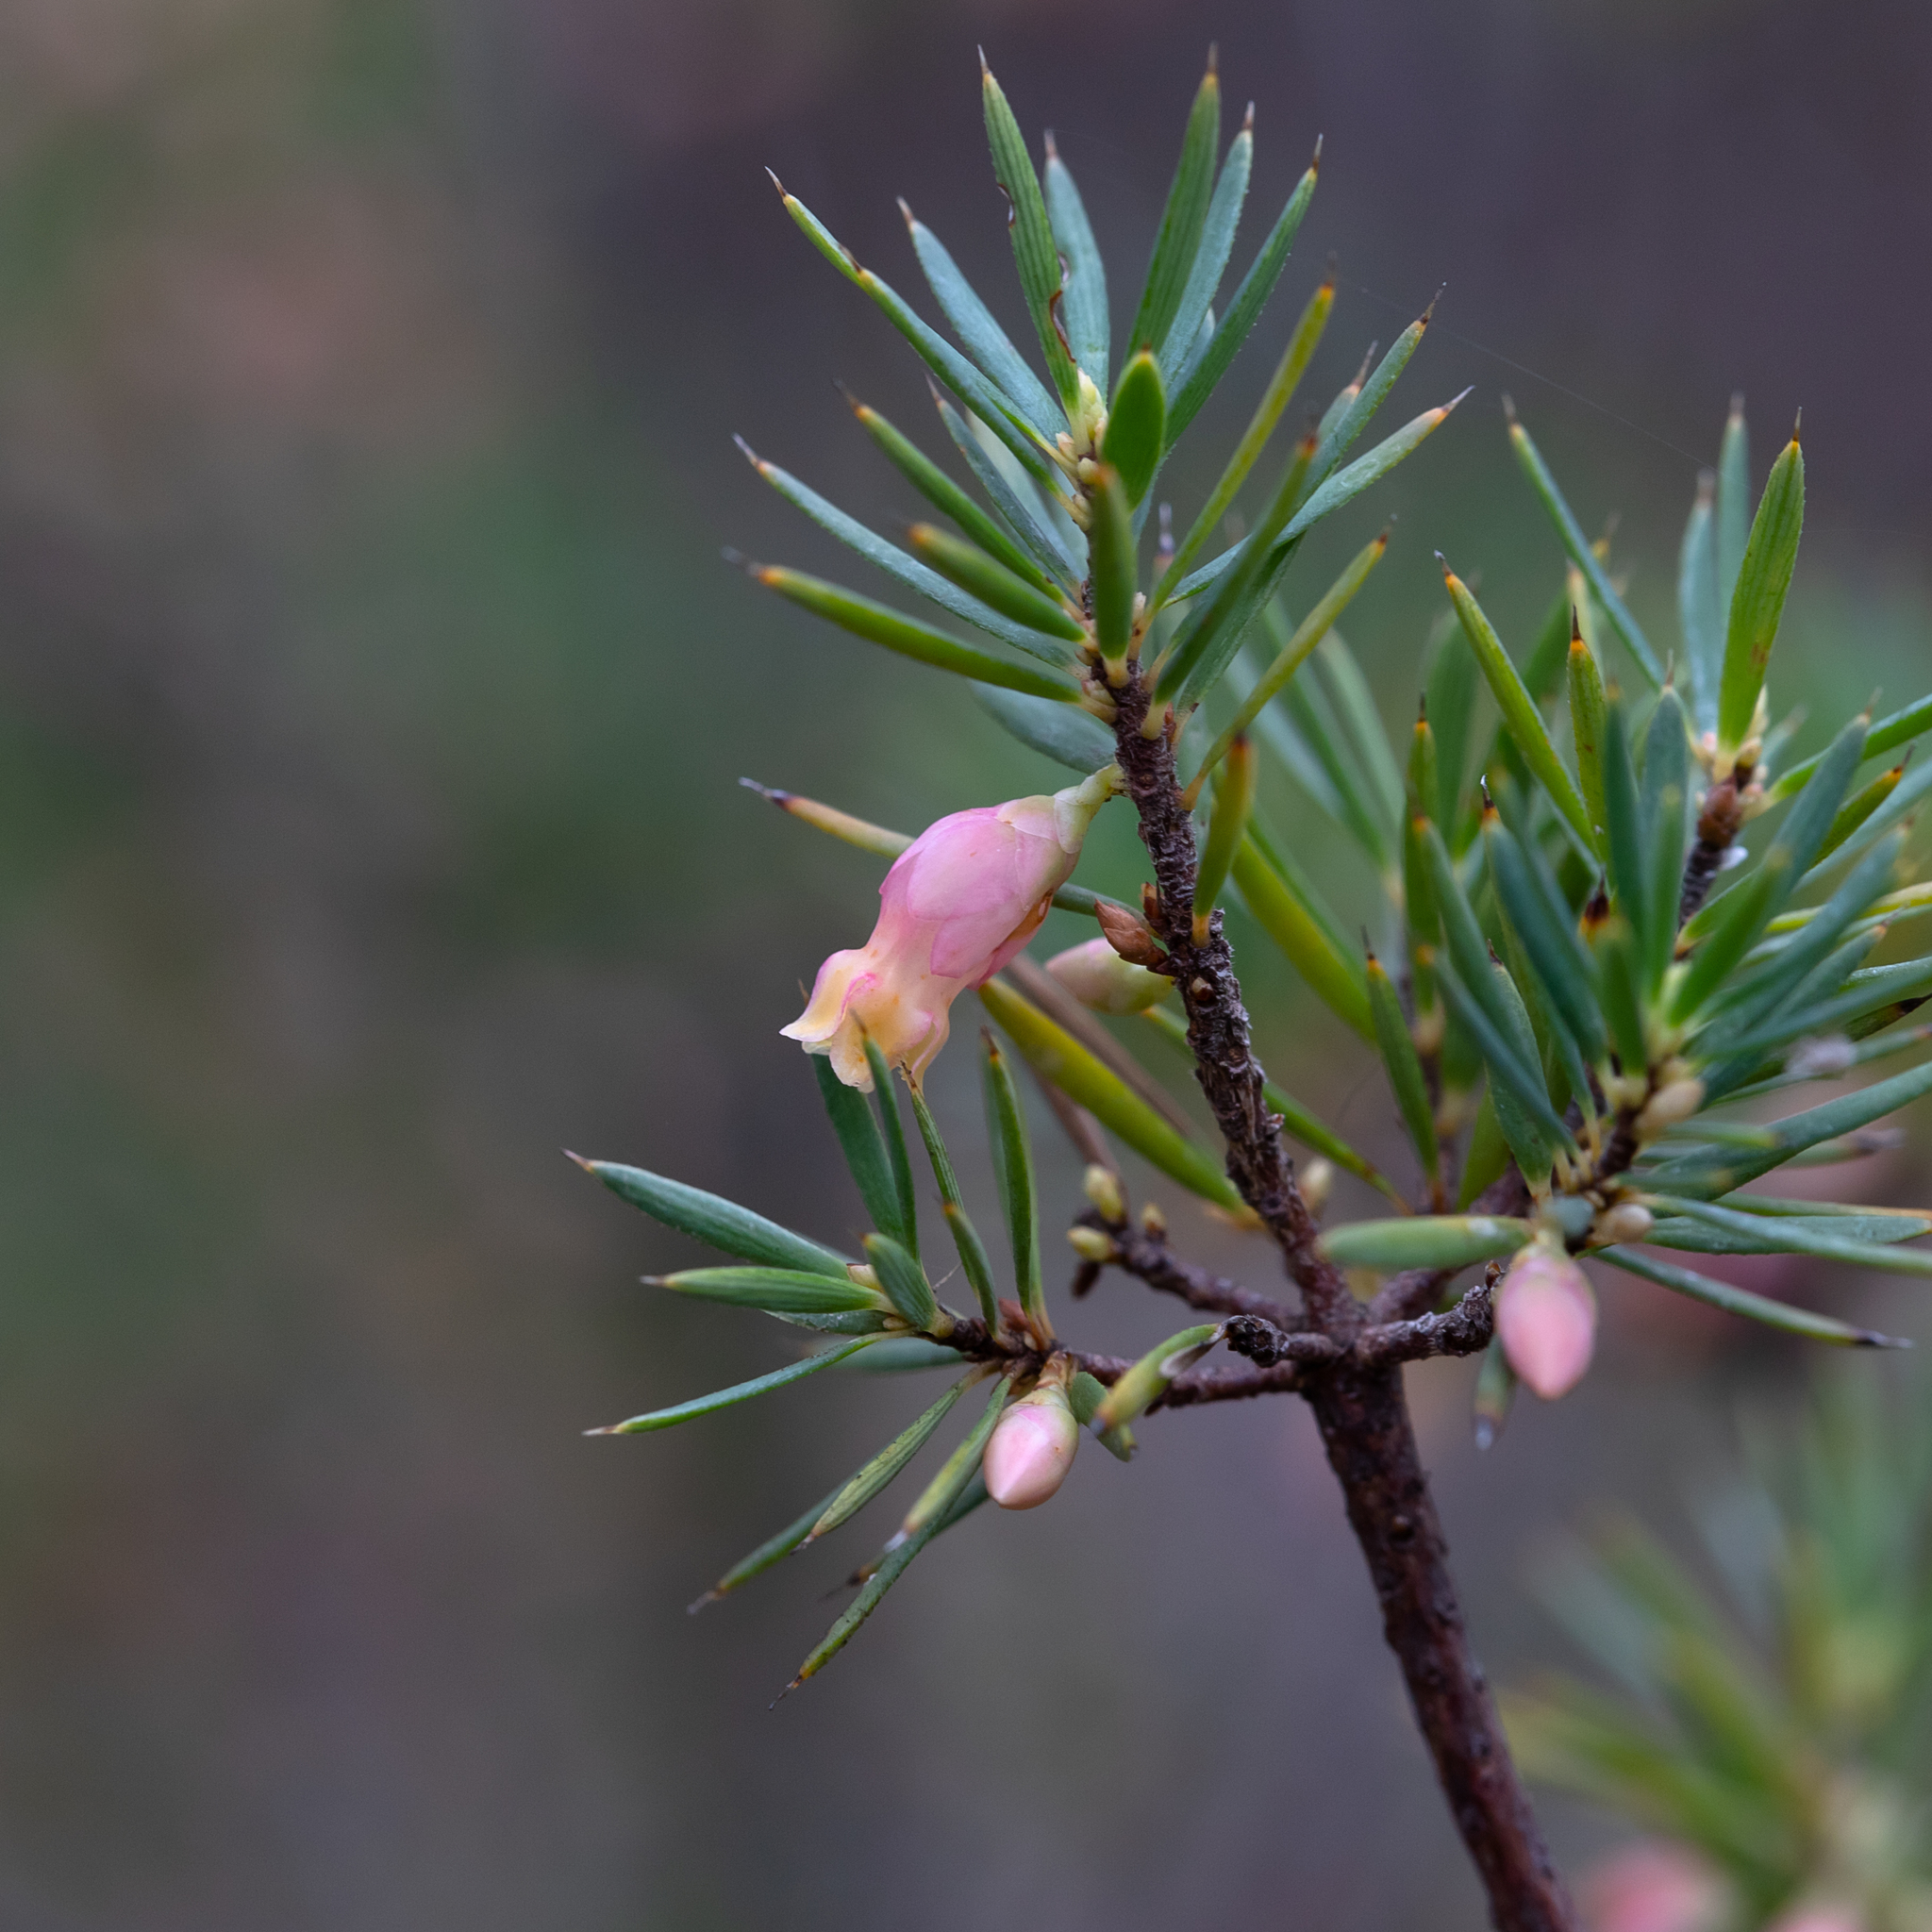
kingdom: Plantae
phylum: Tracheophyta
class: Magnoliopsida
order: Ericales
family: Ericaceae
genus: Brachyloma
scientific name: Brachyloma ericoides
